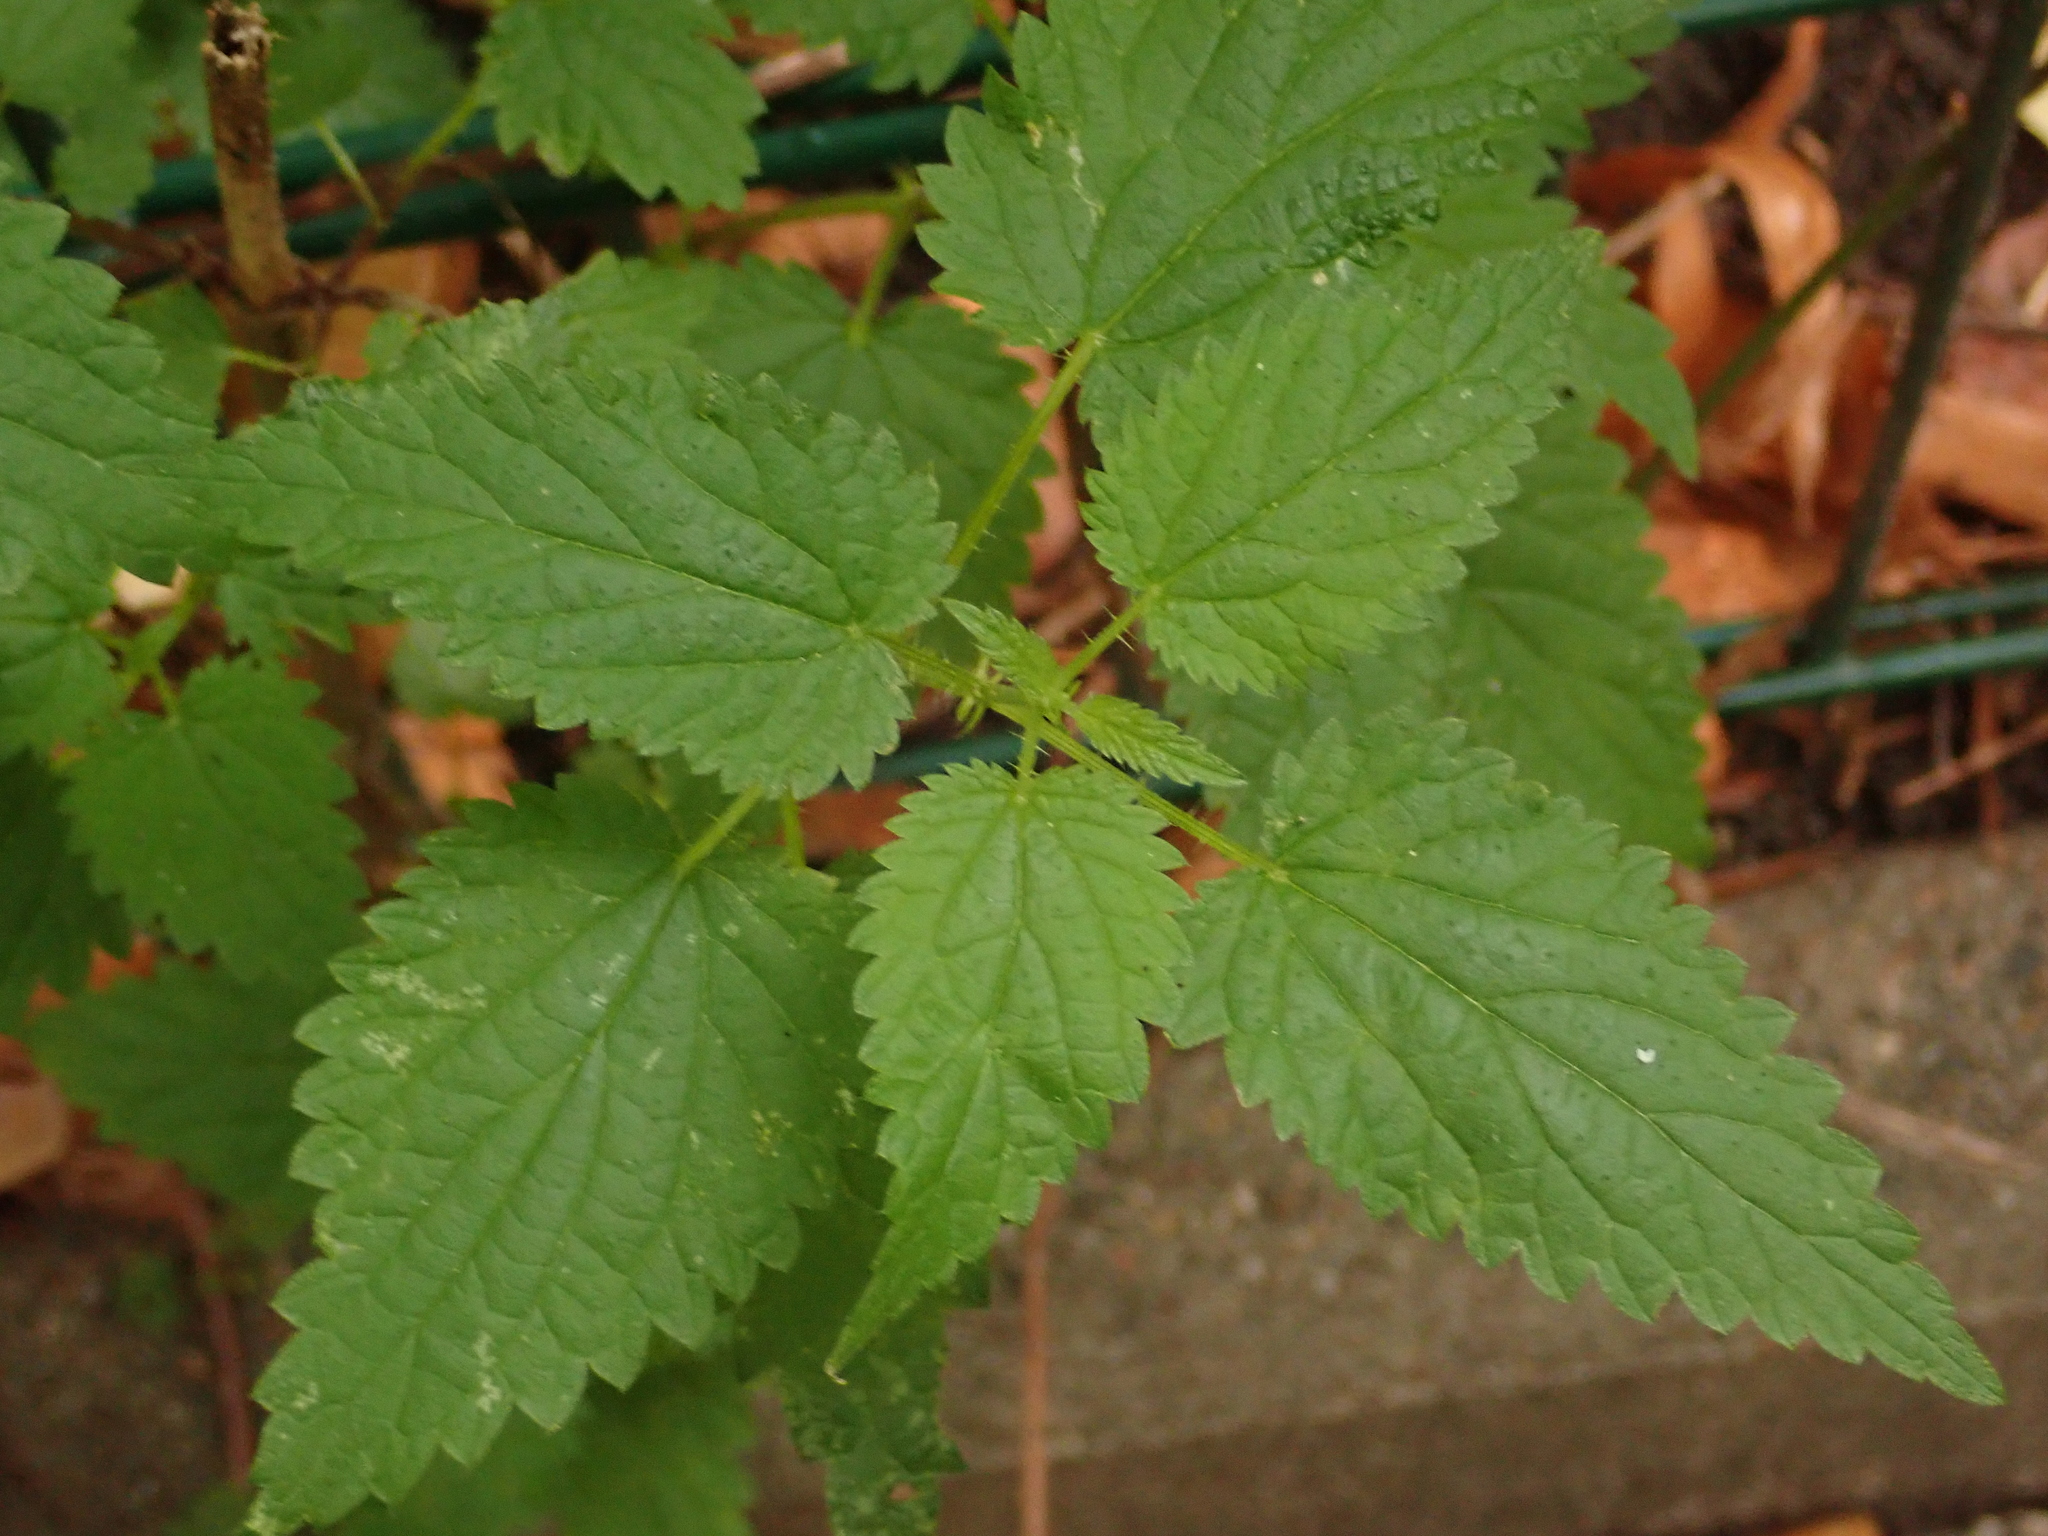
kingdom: Plantae
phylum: Tracheophyta
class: Magnoliopsida
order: Rosales
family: Urticaceae
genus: Urtica
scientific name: Urtica dioica
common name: Common nettle
